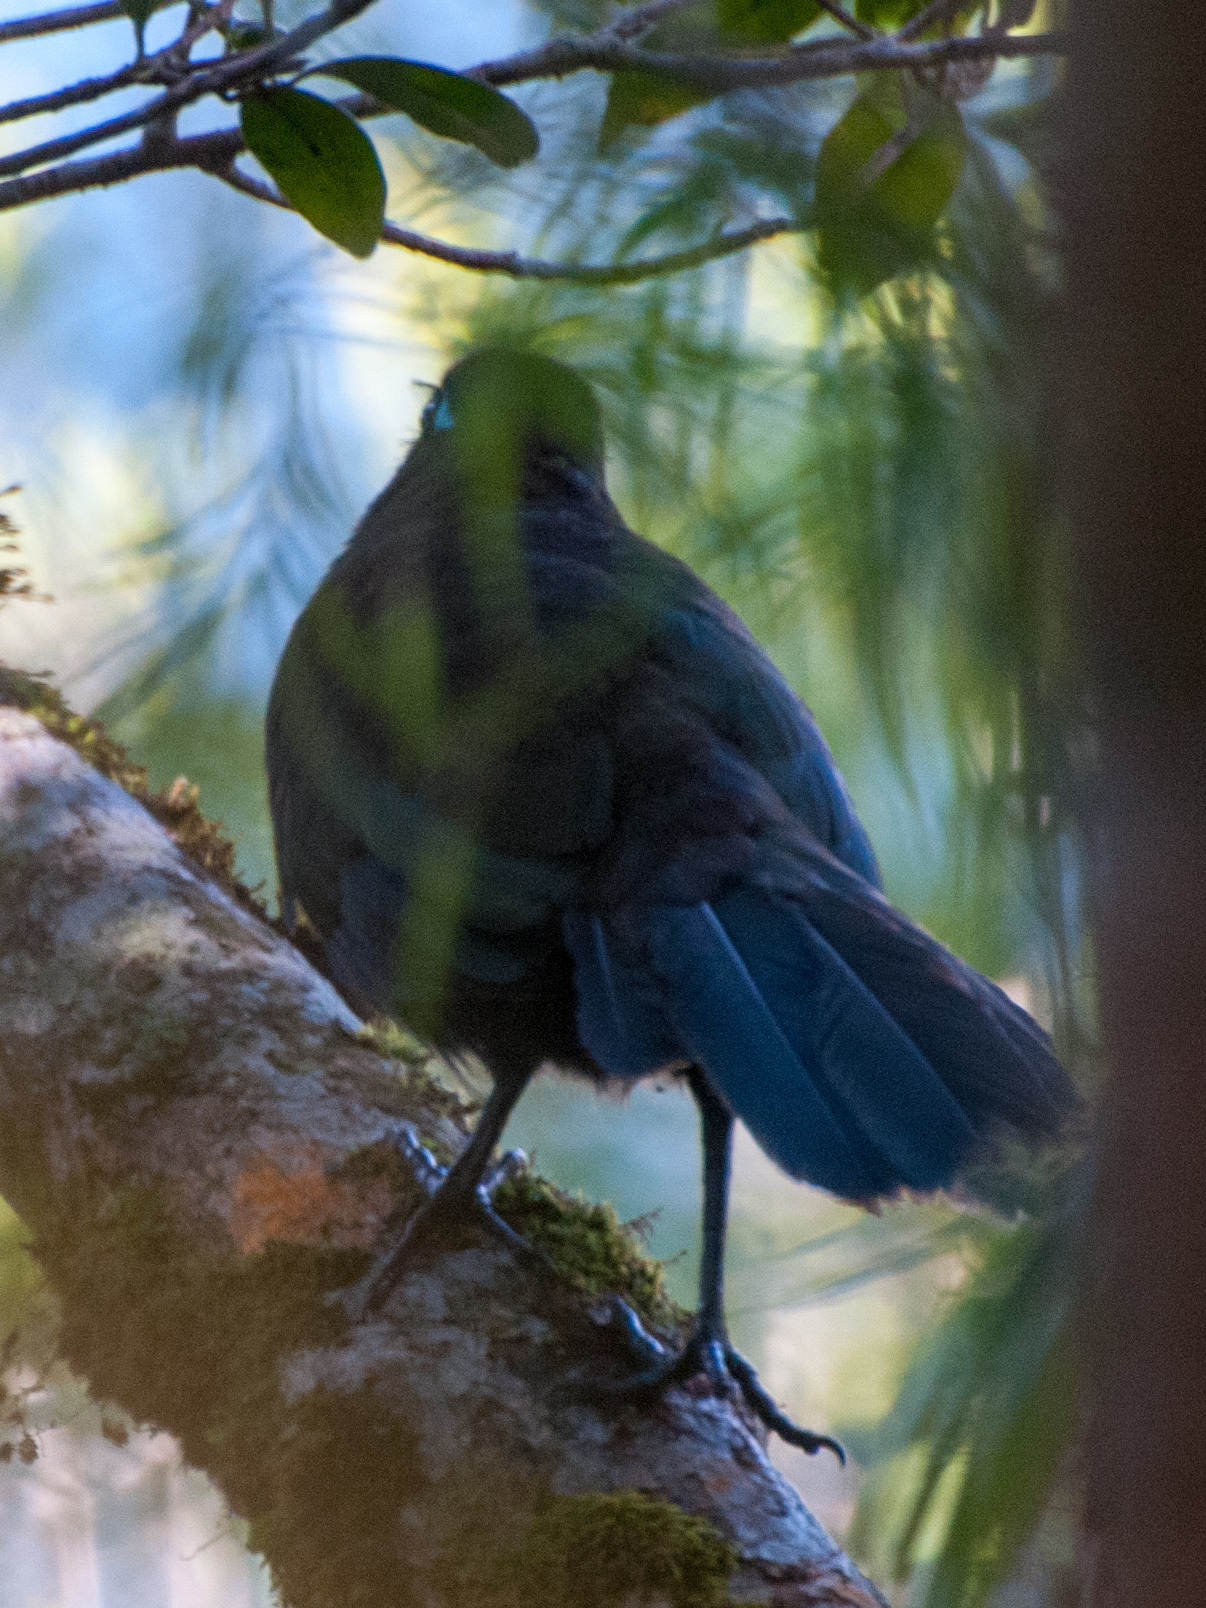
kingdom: Animalia
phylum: Chordata
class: Aves
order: Cuculiformes
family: Cuculidae
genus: Coua
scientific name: Coua caerulea
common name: Blue coua
